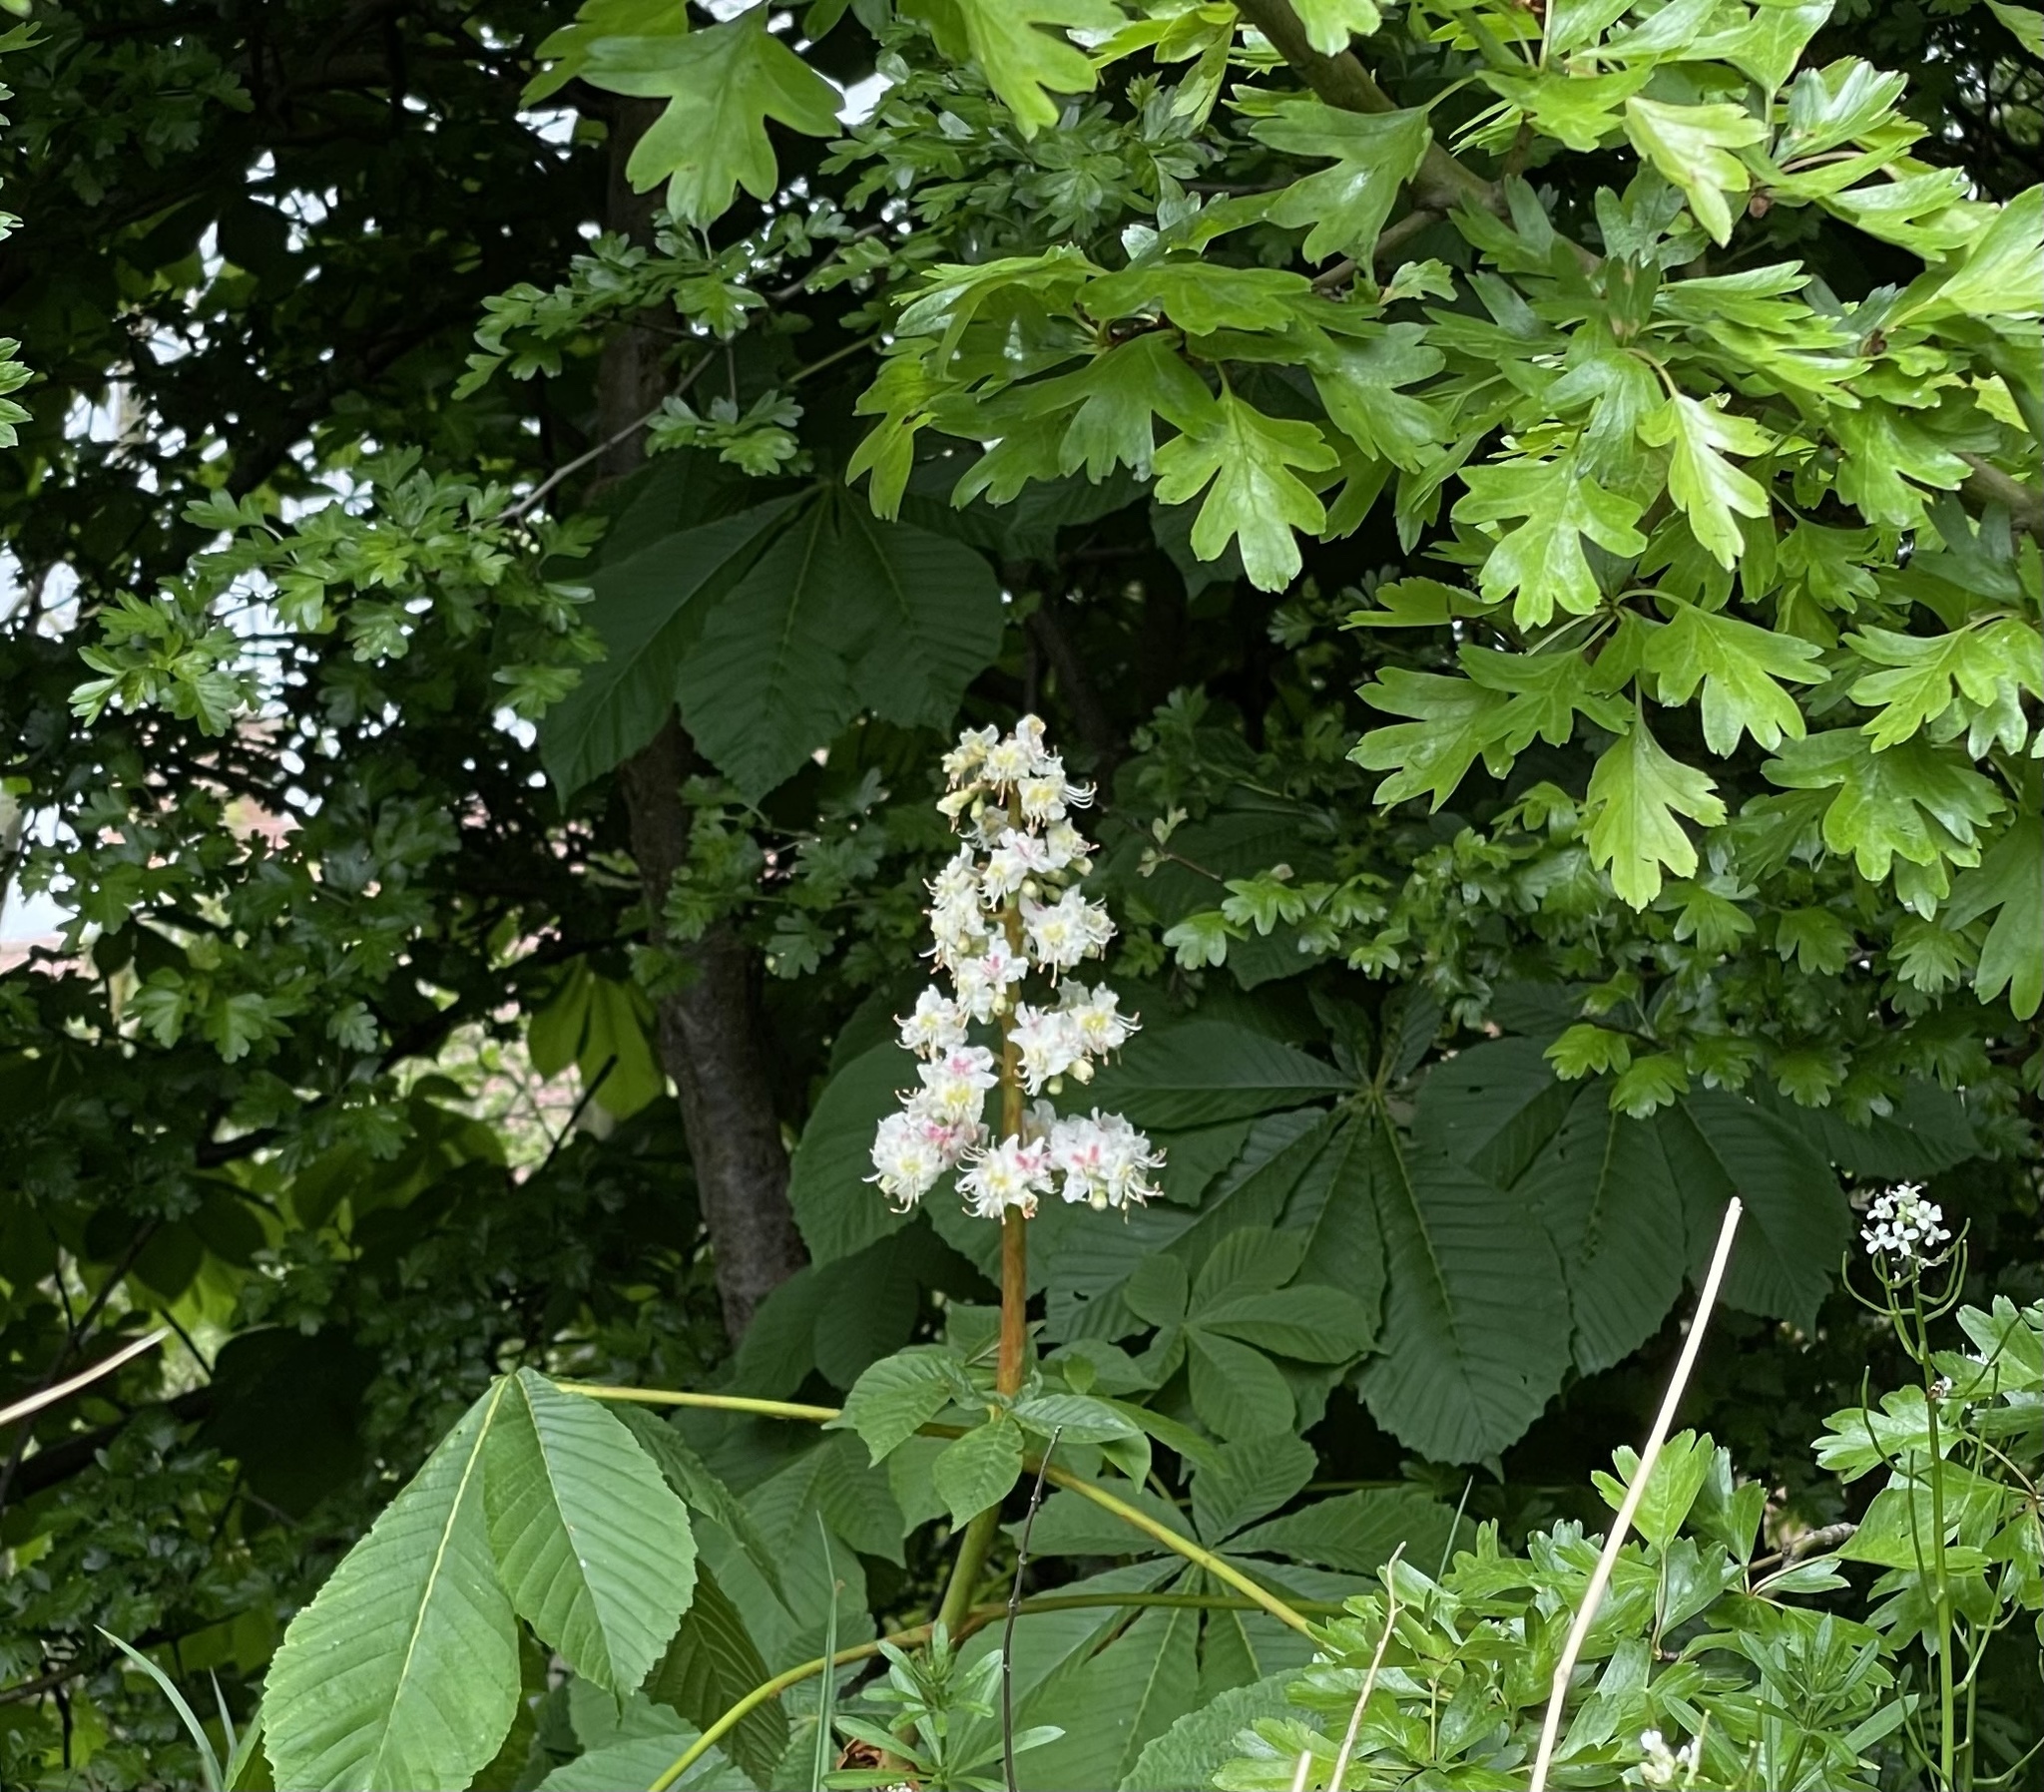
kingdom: Plantae
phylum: Tracheophyta
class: Magnoliopsida
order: Sapindales
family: Sapindaceae
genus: Aesculus
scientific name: Aesculus hippocastanum
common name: Horse-chestnut
